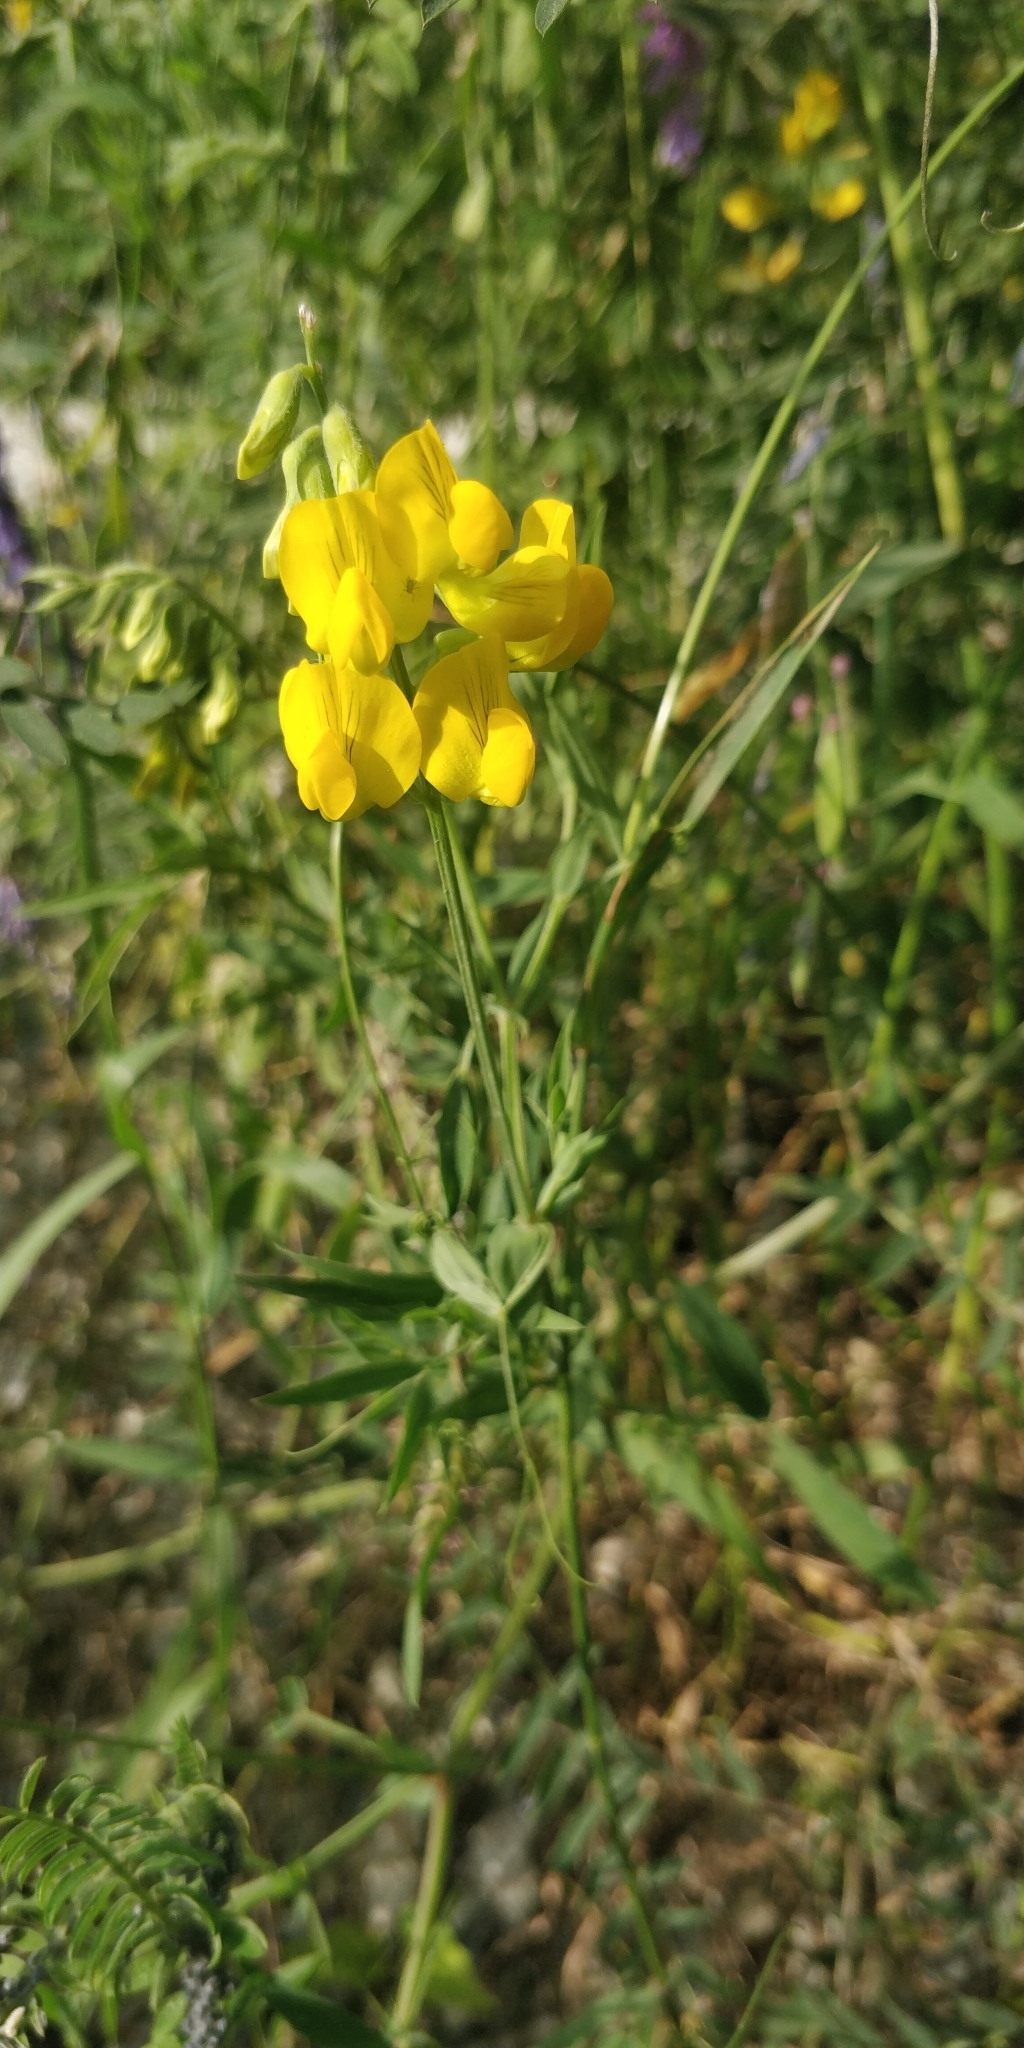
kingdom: Plantae
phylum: Tracheophyta
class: Magnoliopsida
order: Fabales
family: Fabaceae
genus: Lathyrus
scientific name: Lathyrus pratensis
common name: Meadow vetchling
